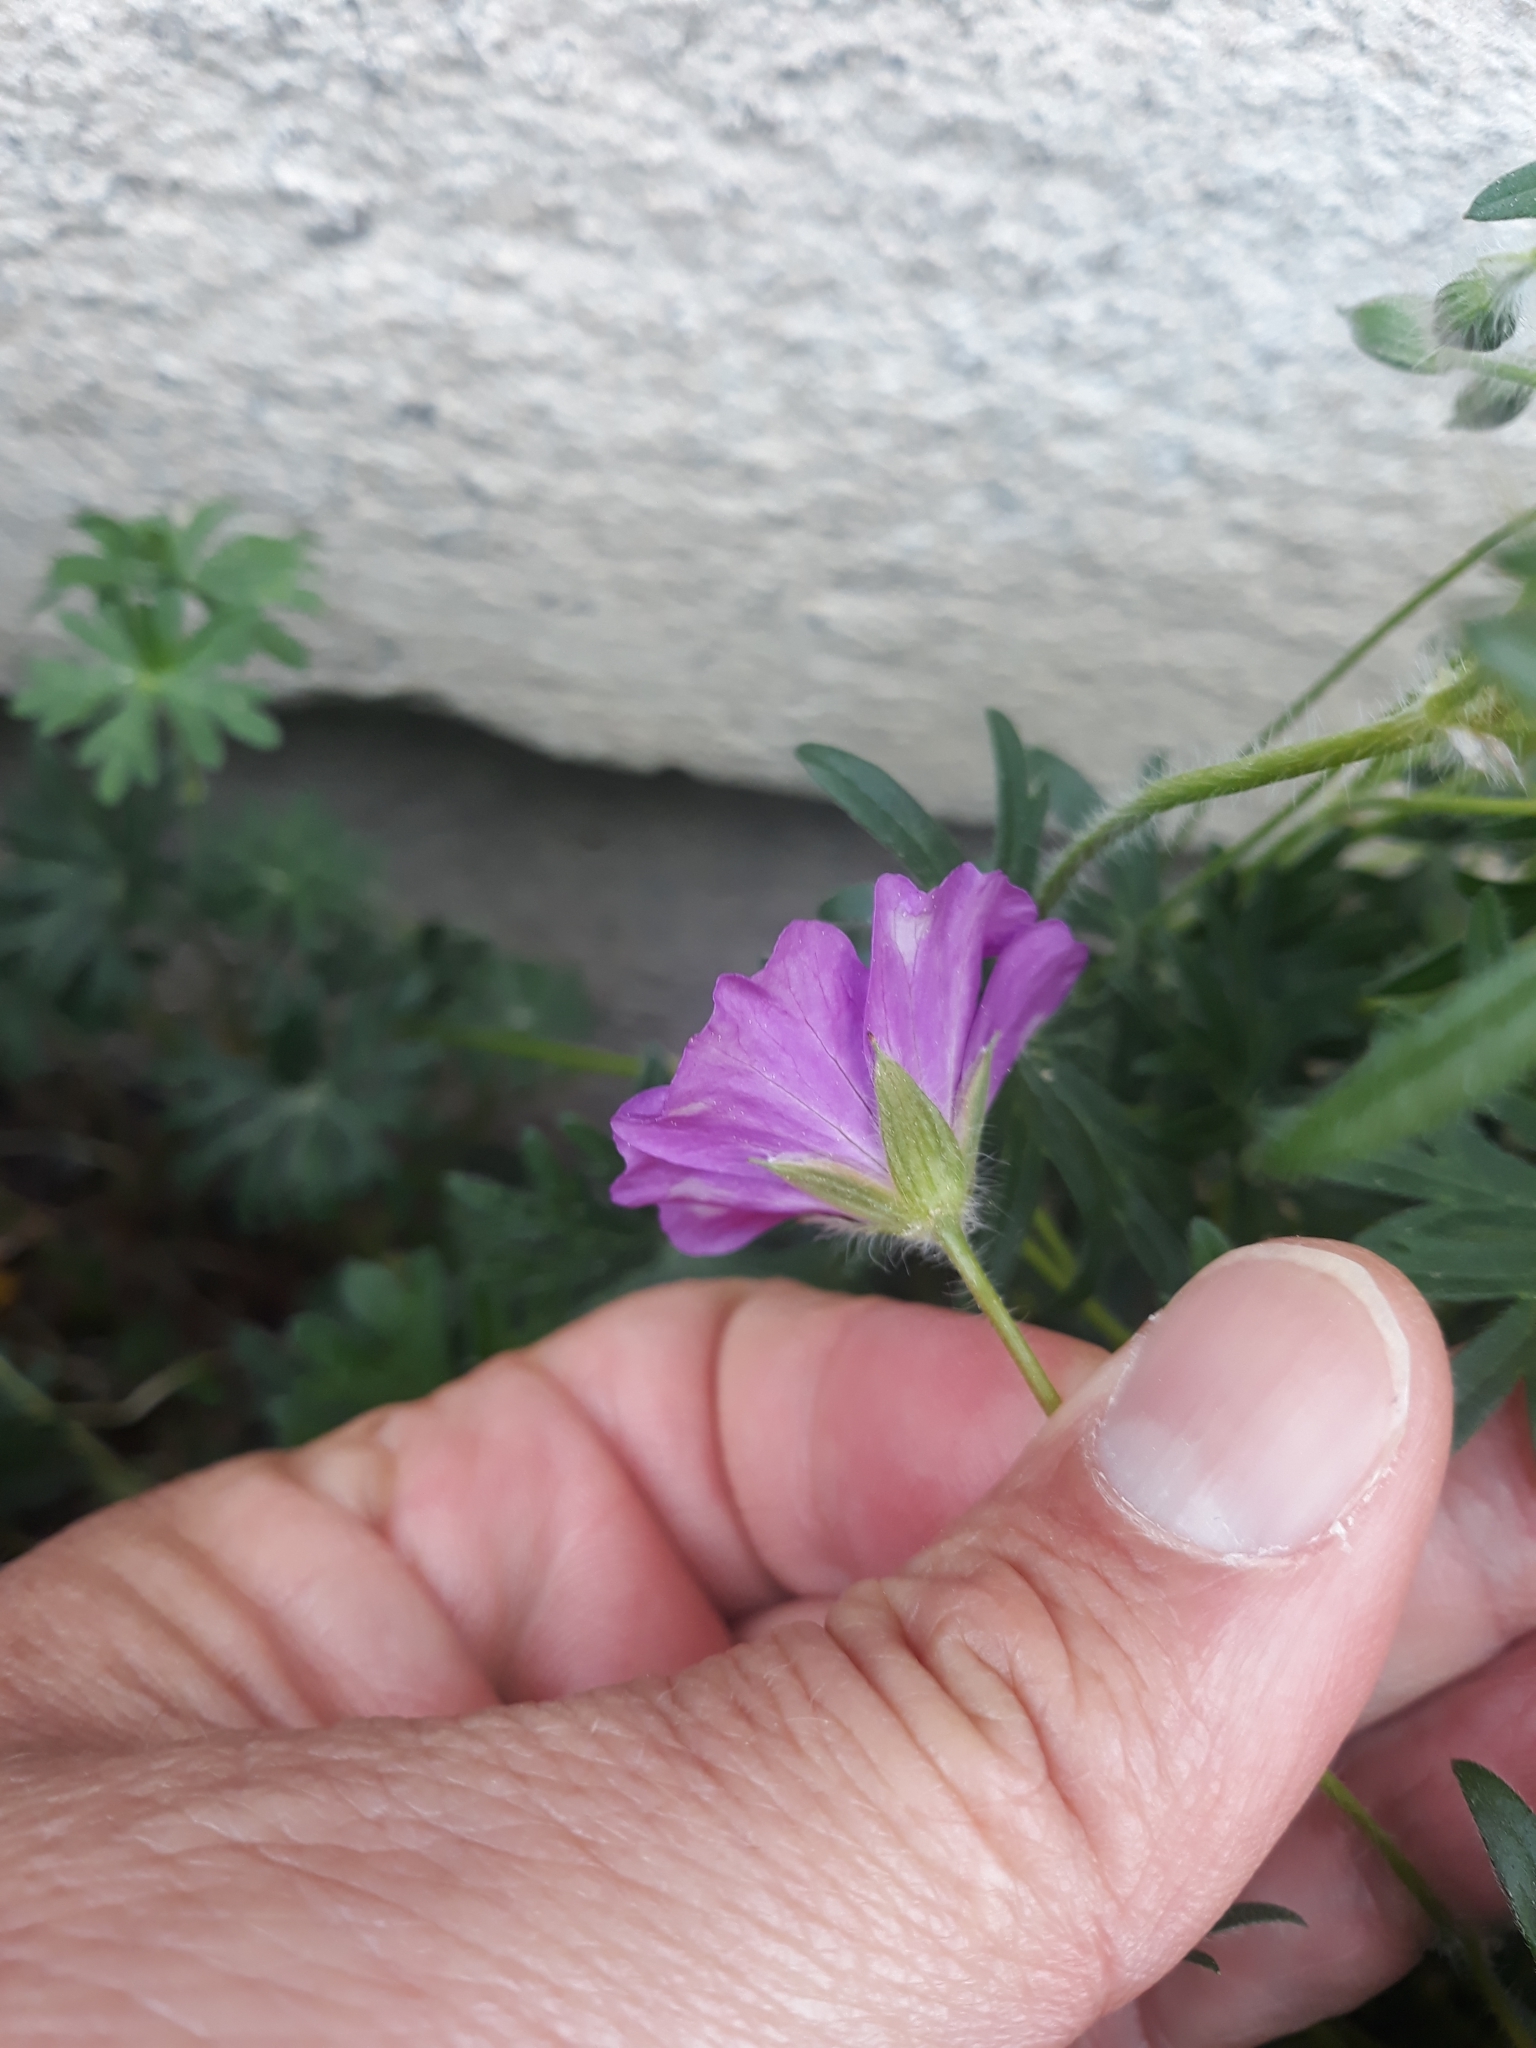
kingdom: Plantae
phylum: Tracheophyta
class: Magnoliopsida
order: Geraniales
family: Geraniaceae
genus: Geranium
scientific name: Geranium sanguineum
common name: Bloody crane's-bill
